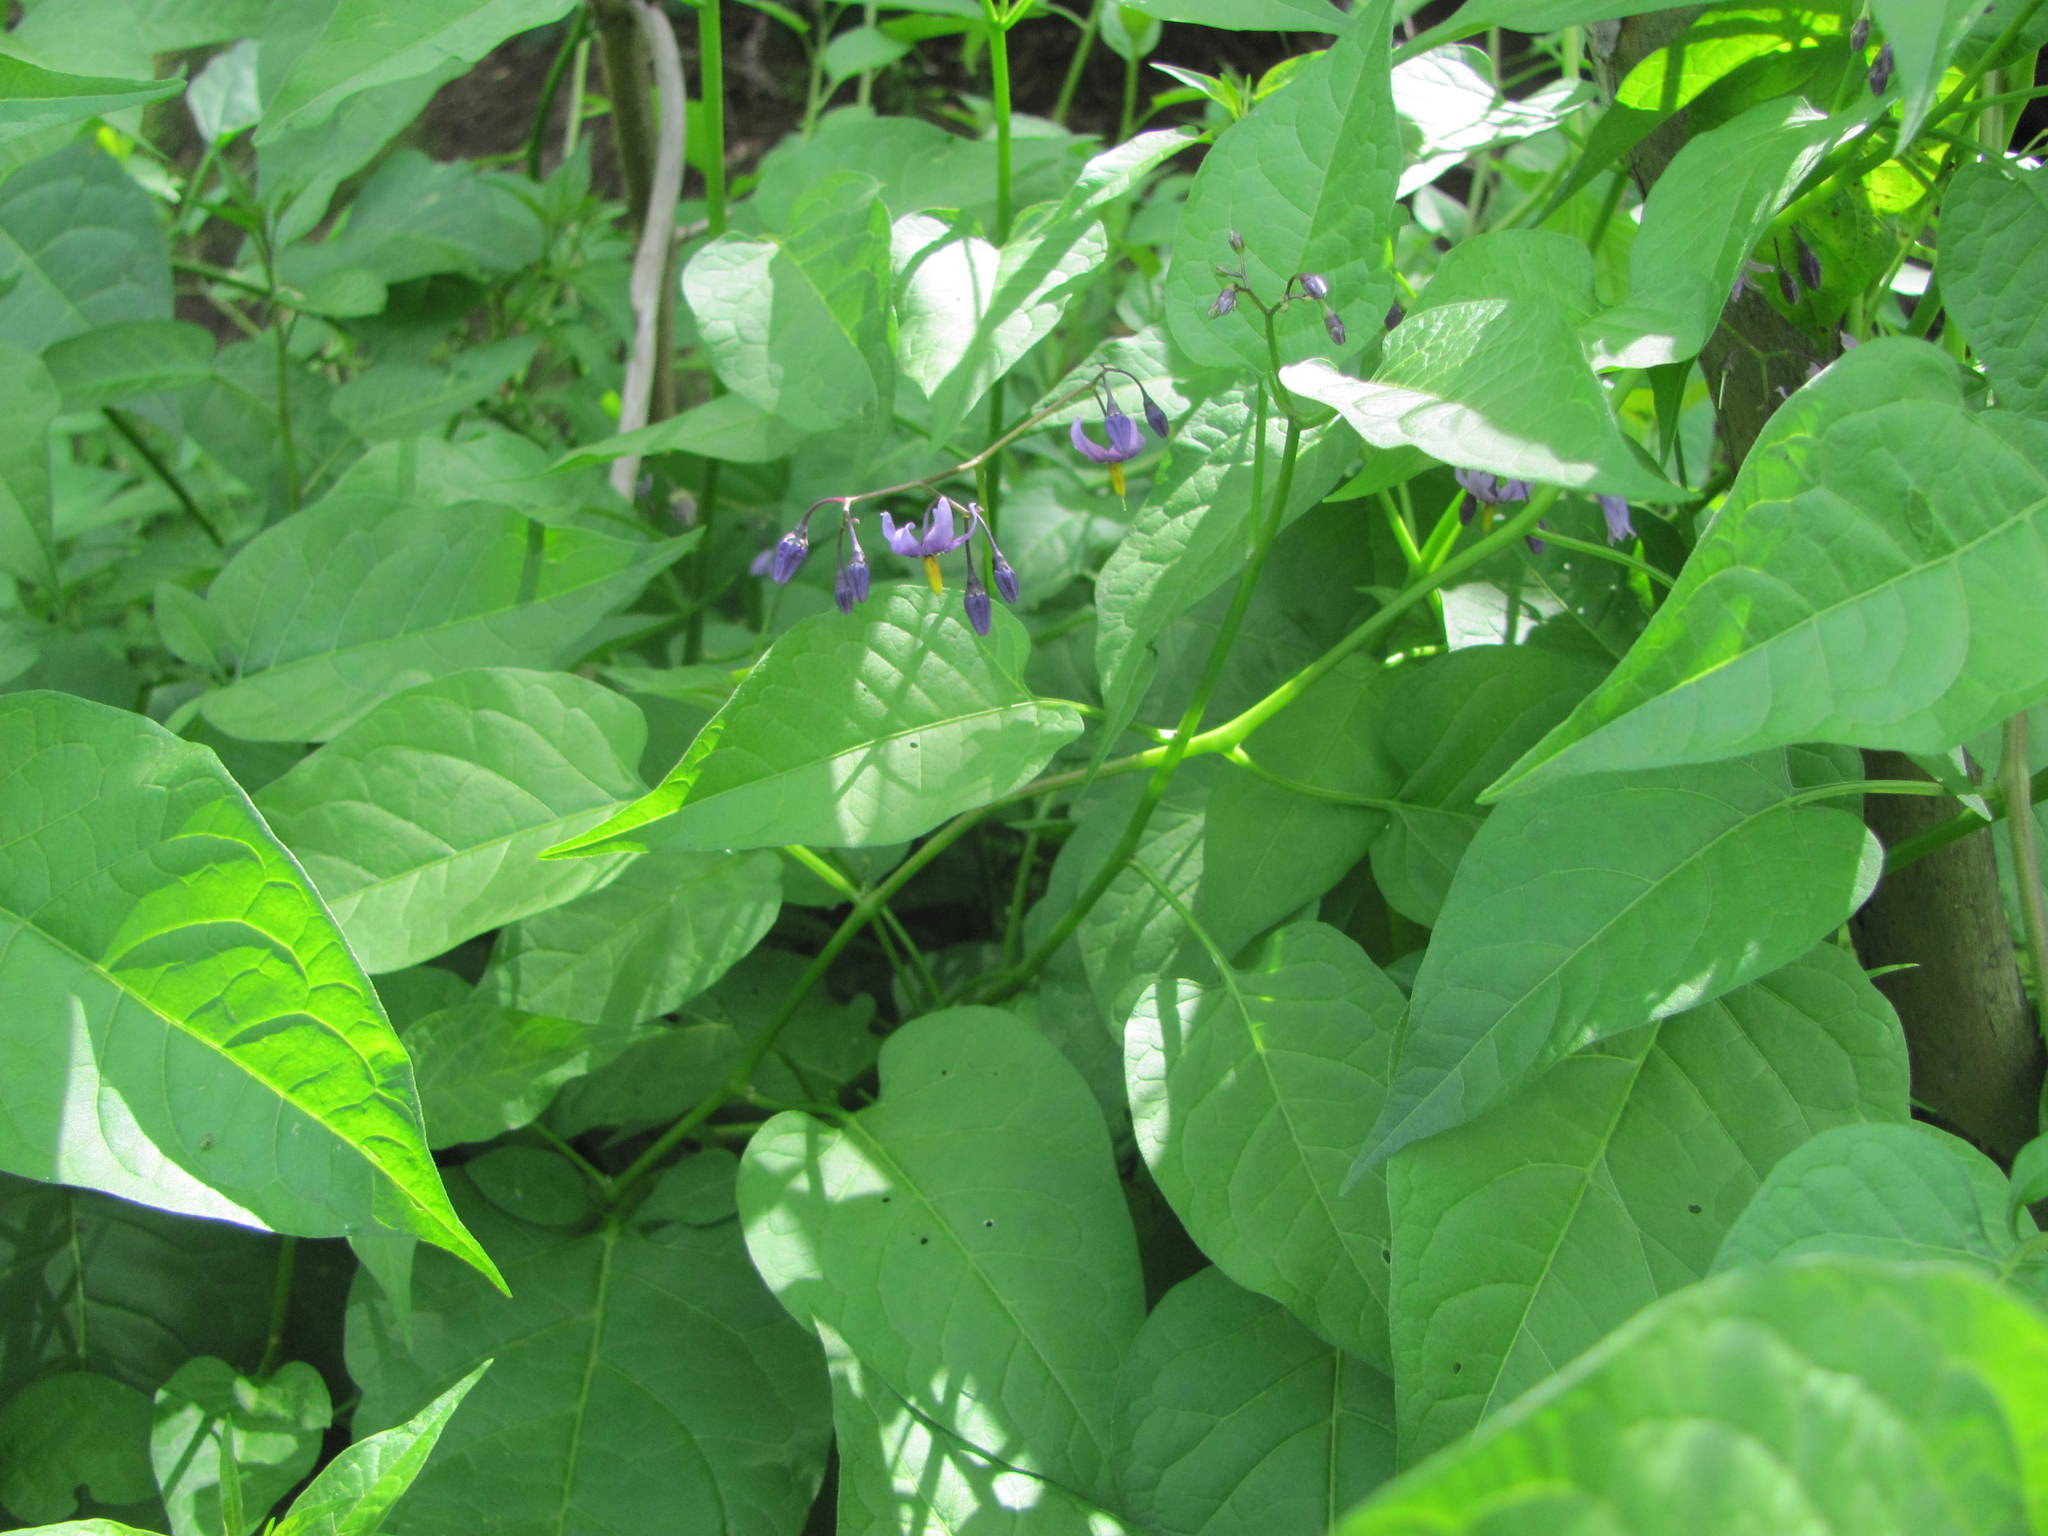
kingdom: Plantae
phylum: Tracheophyta
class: Magnoliopsida
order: Solanales
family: Solanaceae
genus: Solanum
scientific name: Solanum dulcamara
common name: Climbing nightshade
